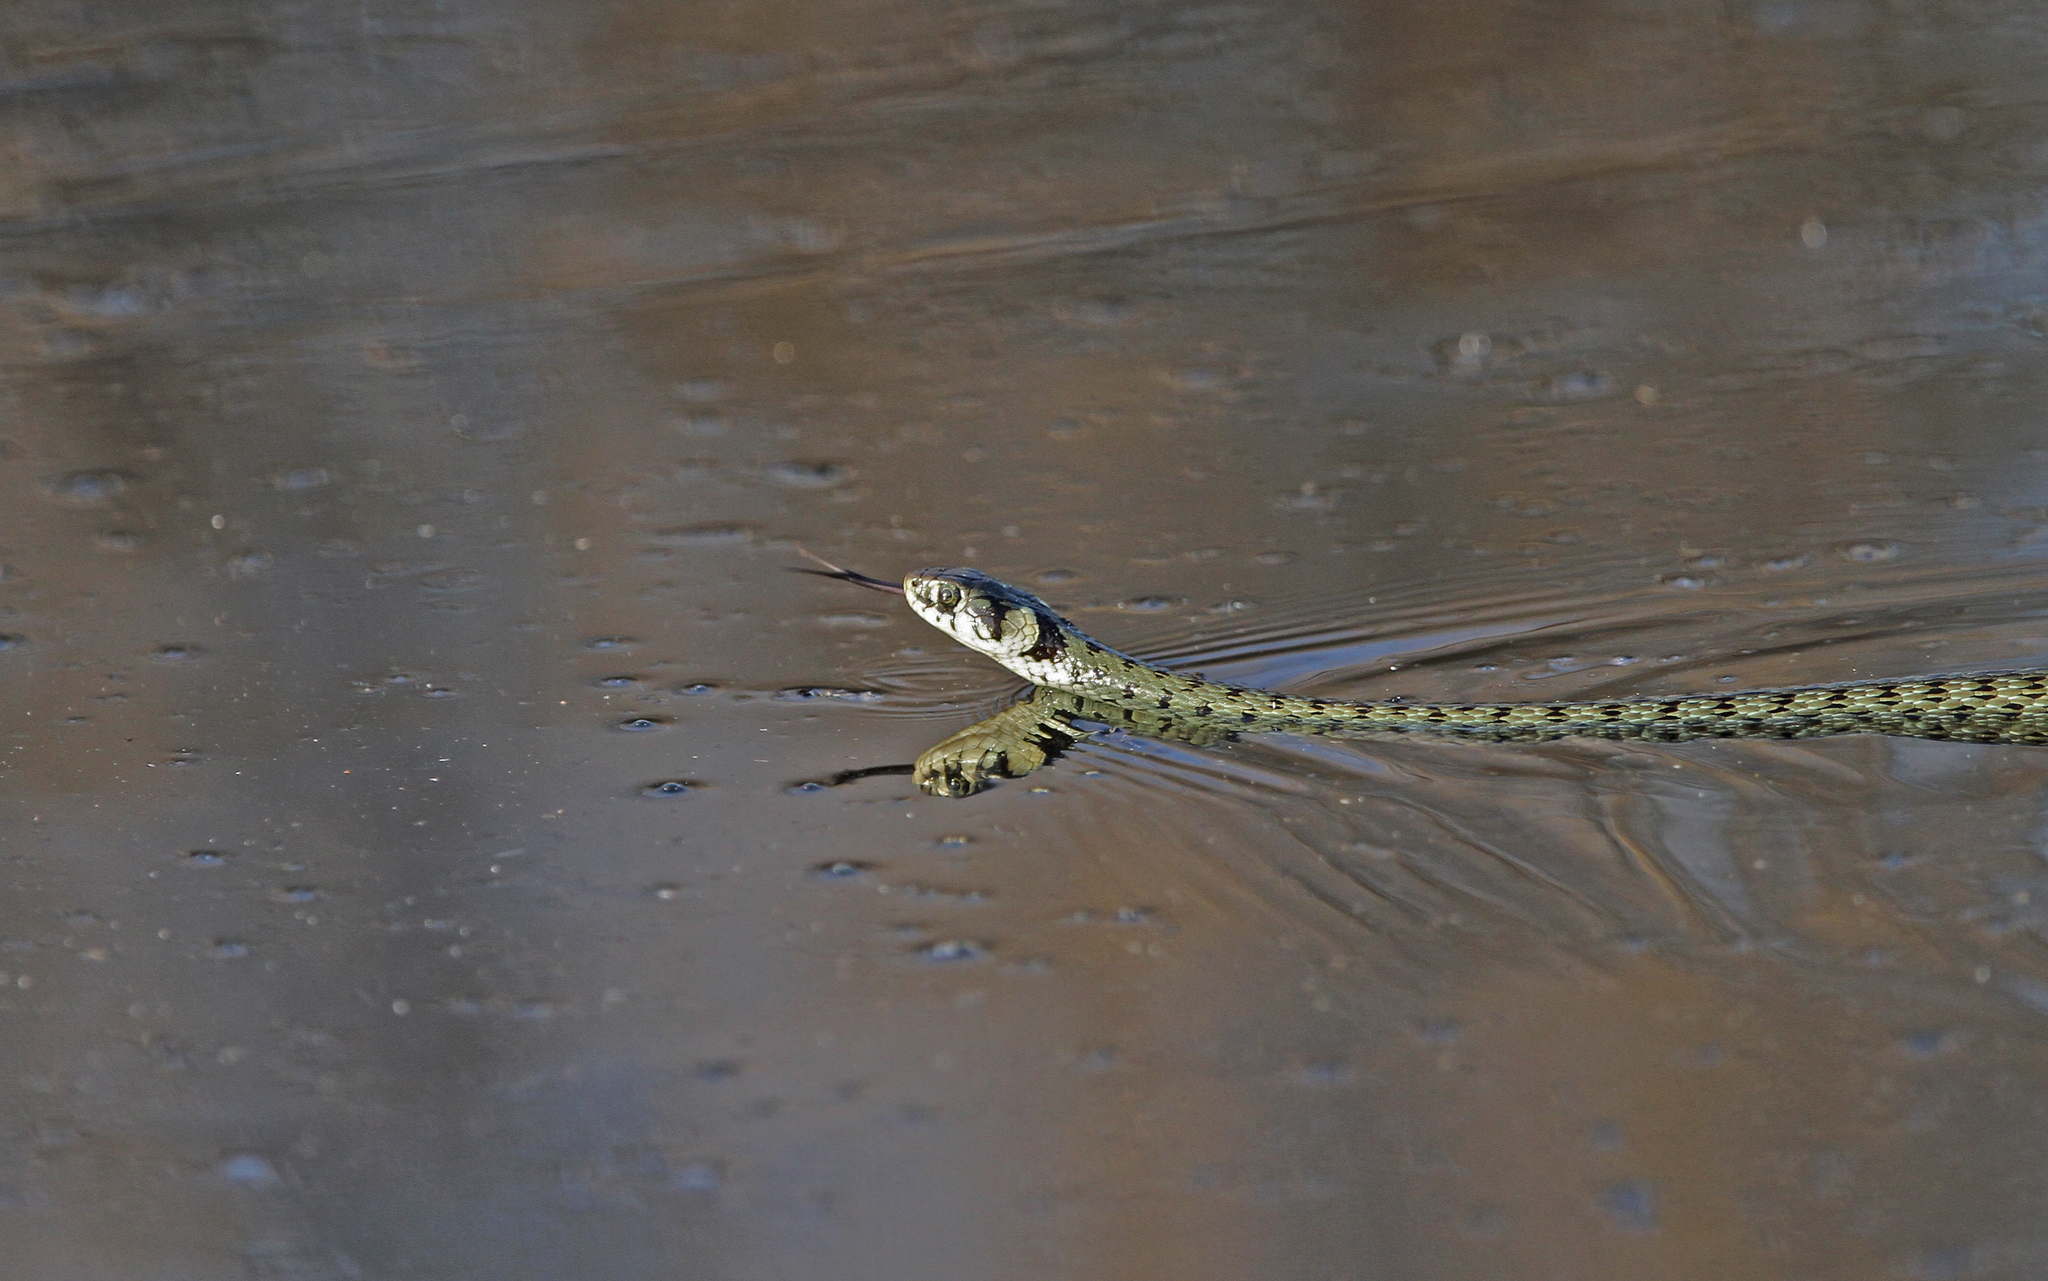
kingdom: Animalia
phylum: Chordata
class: Squamata
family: Colubridae
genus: Natrix
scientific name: Natrix natrix
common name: Grass snake
